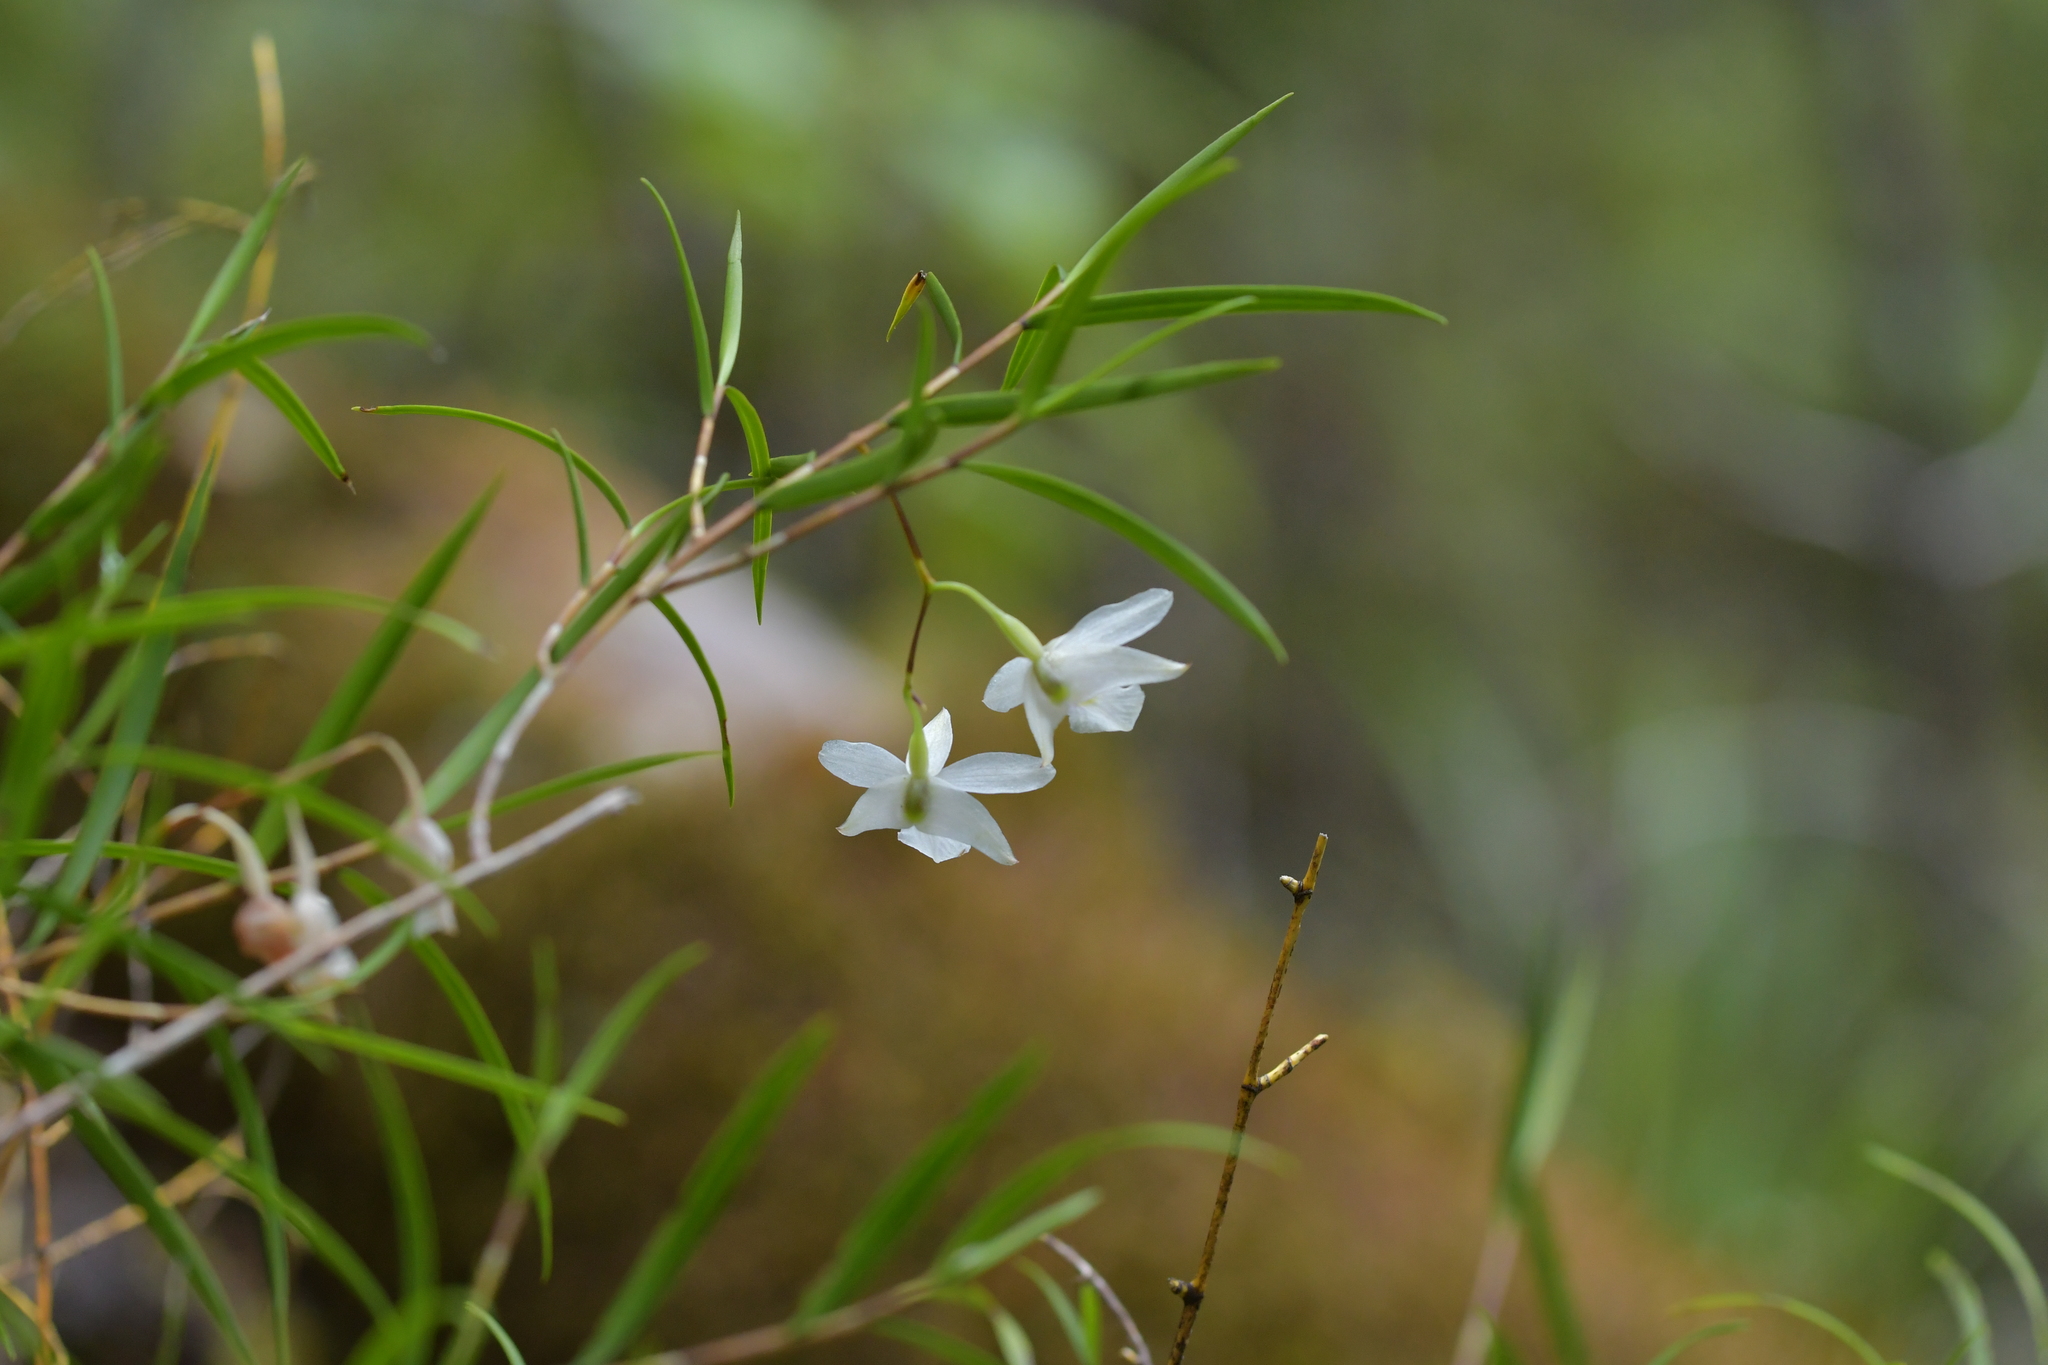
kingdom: Plantae
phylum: Tracheophyta
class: Liliopsida
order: Asparagales
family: Orchidaceae
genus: Dendrobium
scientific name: Dendrobium cunninghamii
